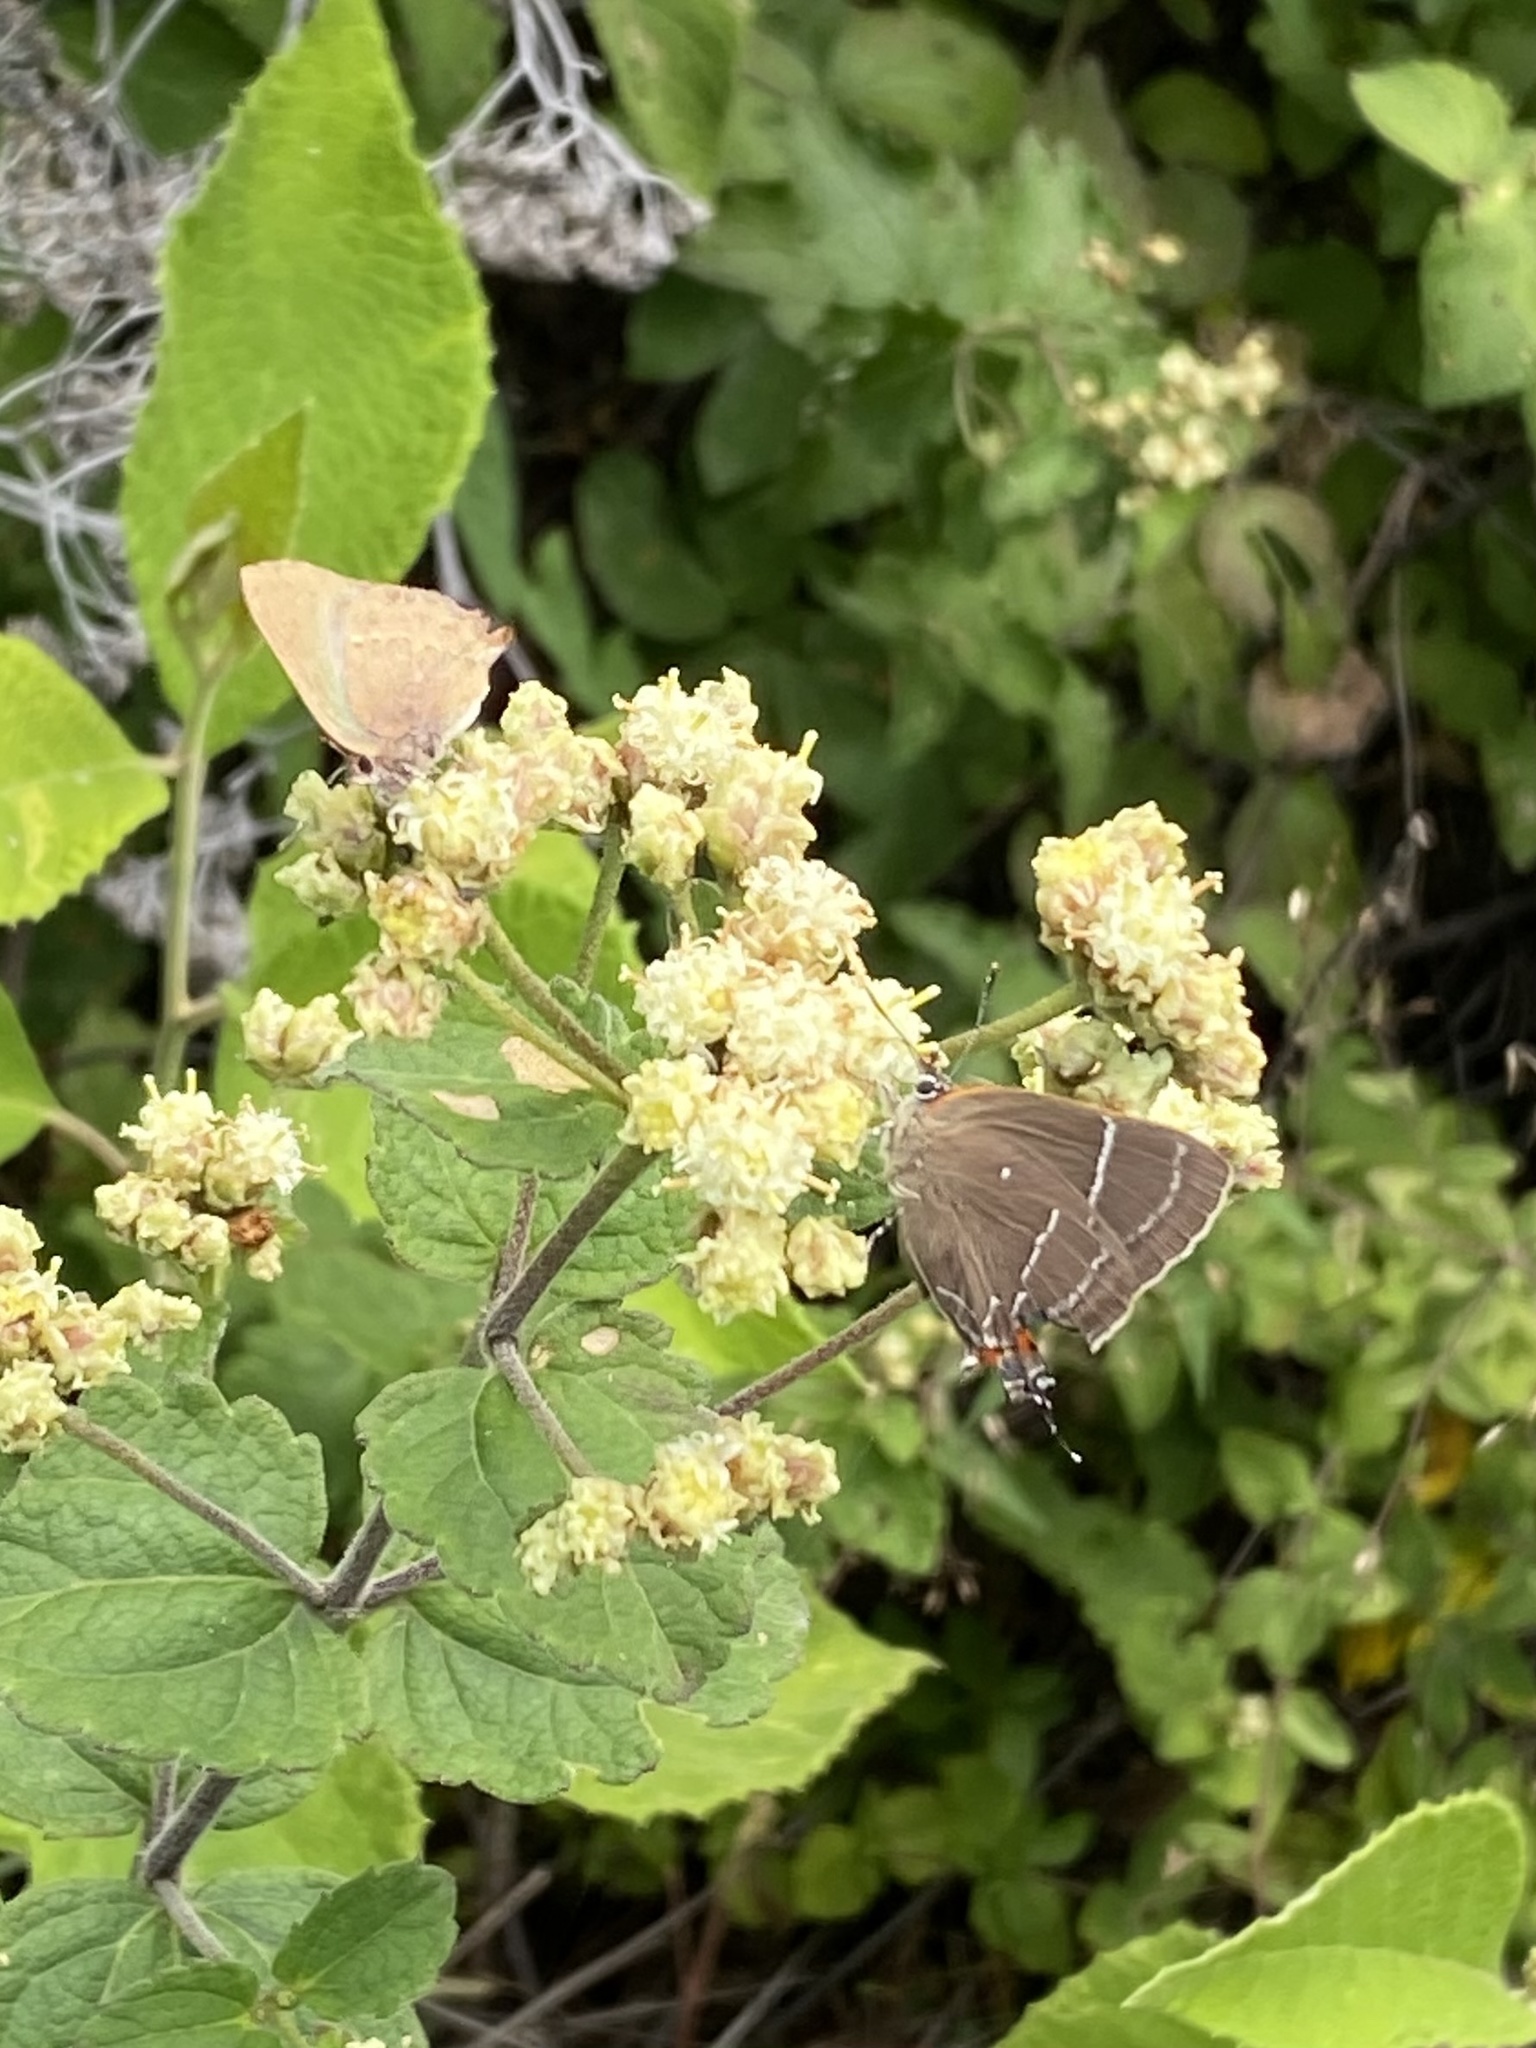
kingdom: Animalia
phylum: Arthropoda
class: Insecta
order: Lepidoptera
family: Lycaenidae
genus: Cyanophrys
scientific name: Cyanophrys longula
